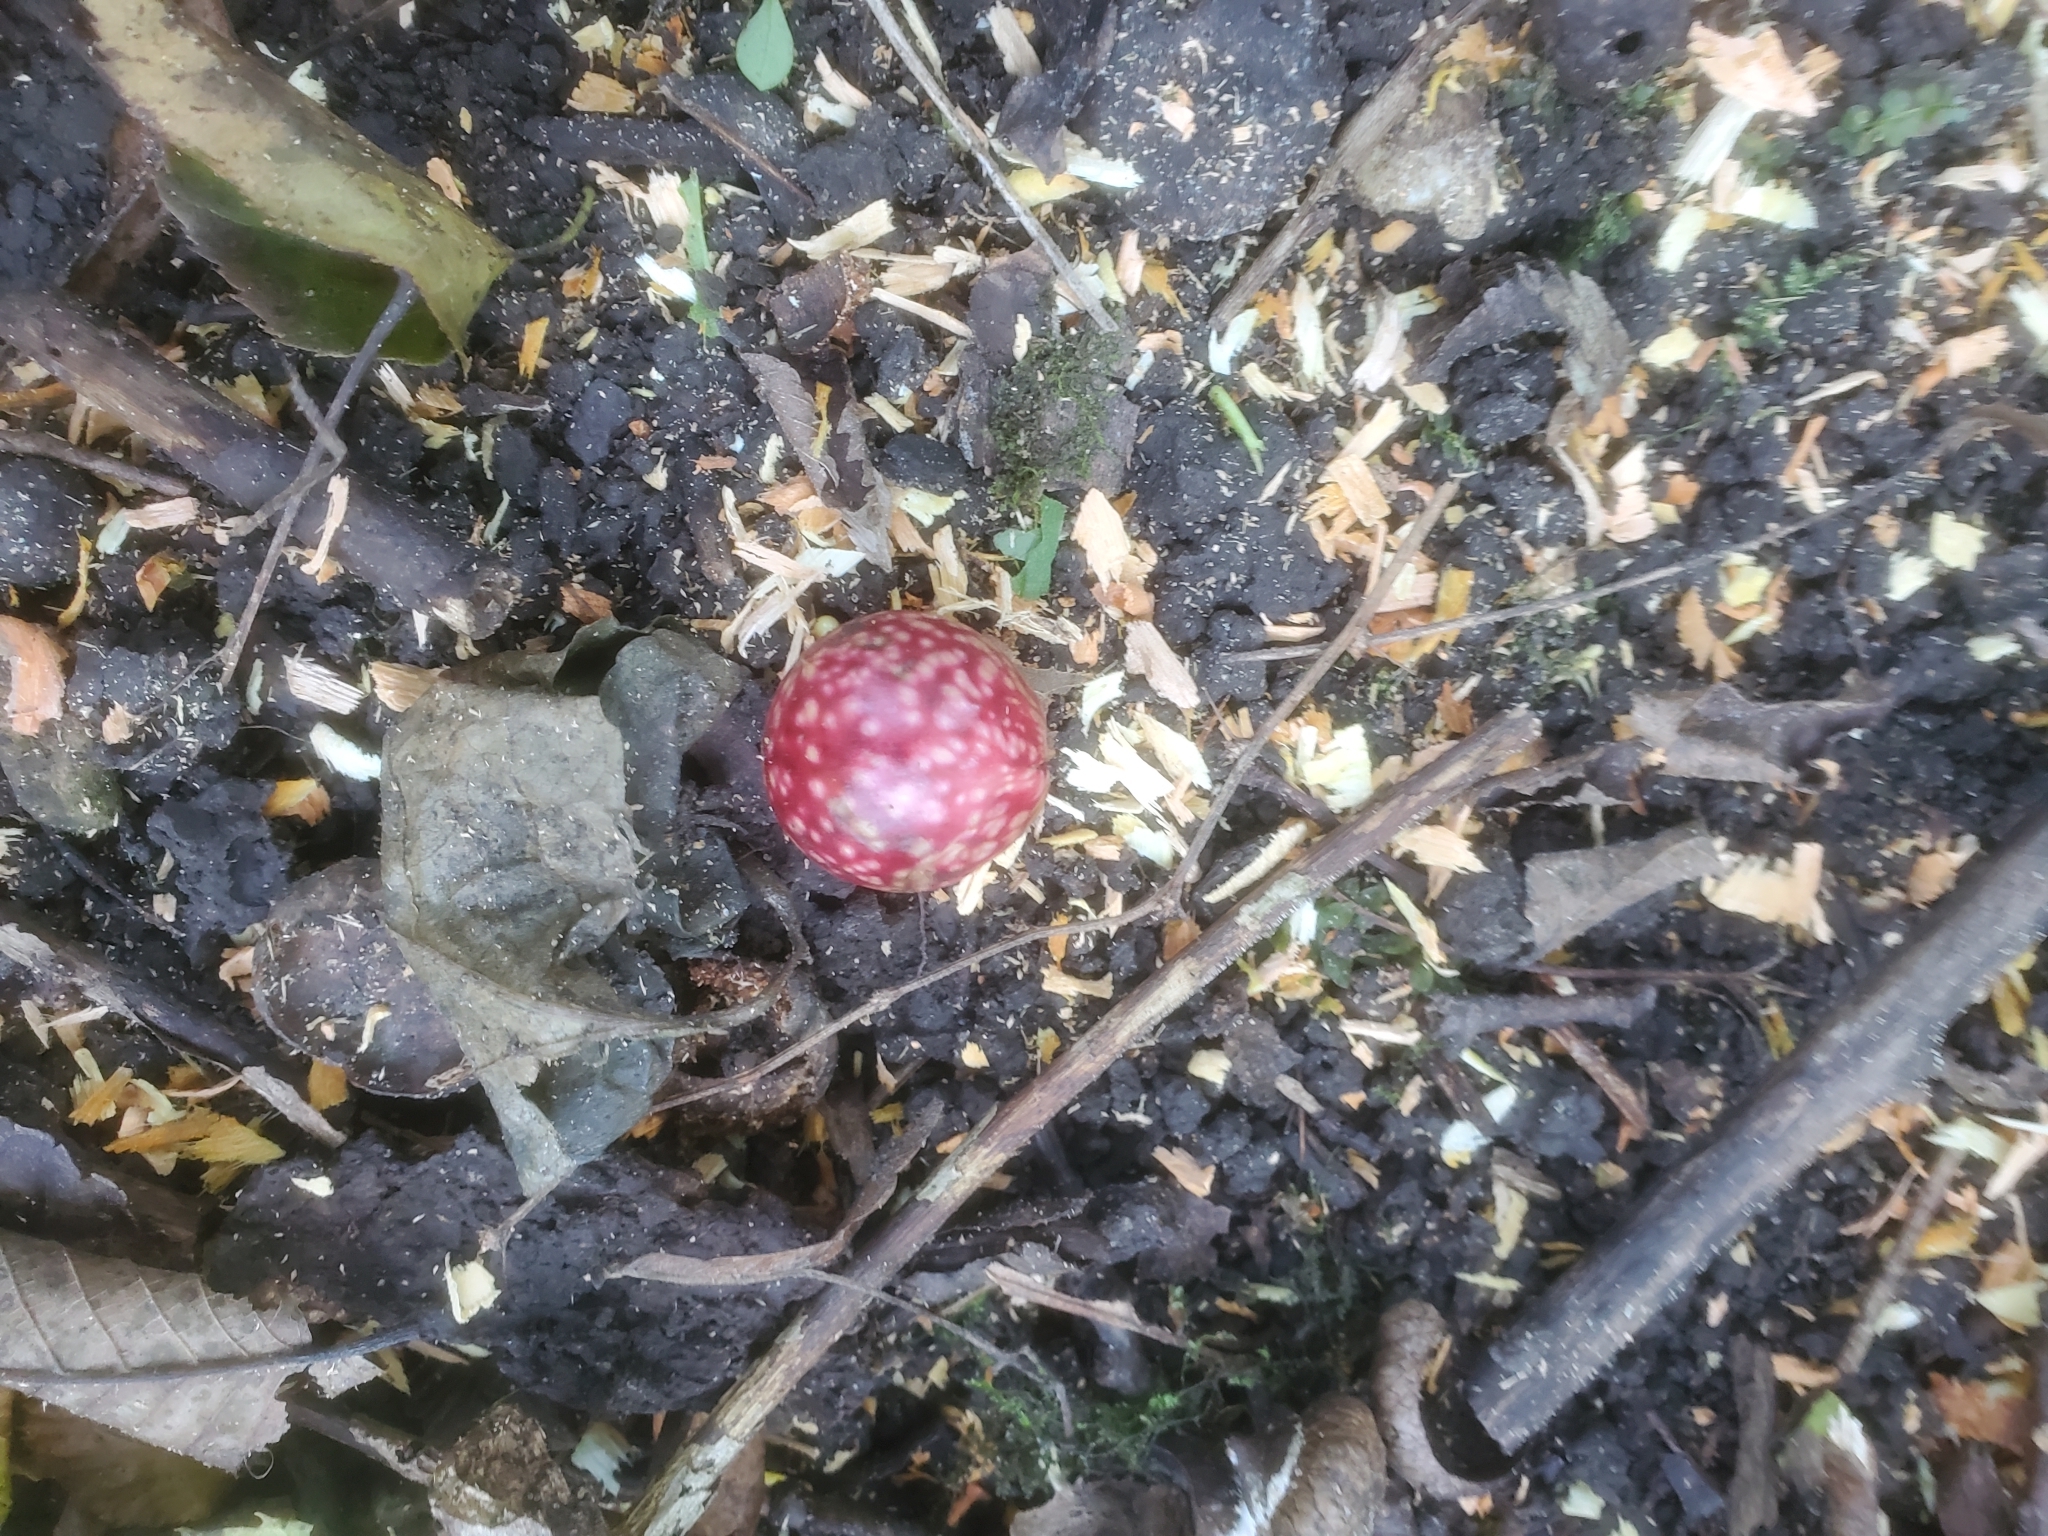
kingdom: Animalia
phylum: Arthropoda
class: Insecta
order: Hymenoptera
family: Cynipidae
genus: Amphibolips
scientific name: Amphibolips
